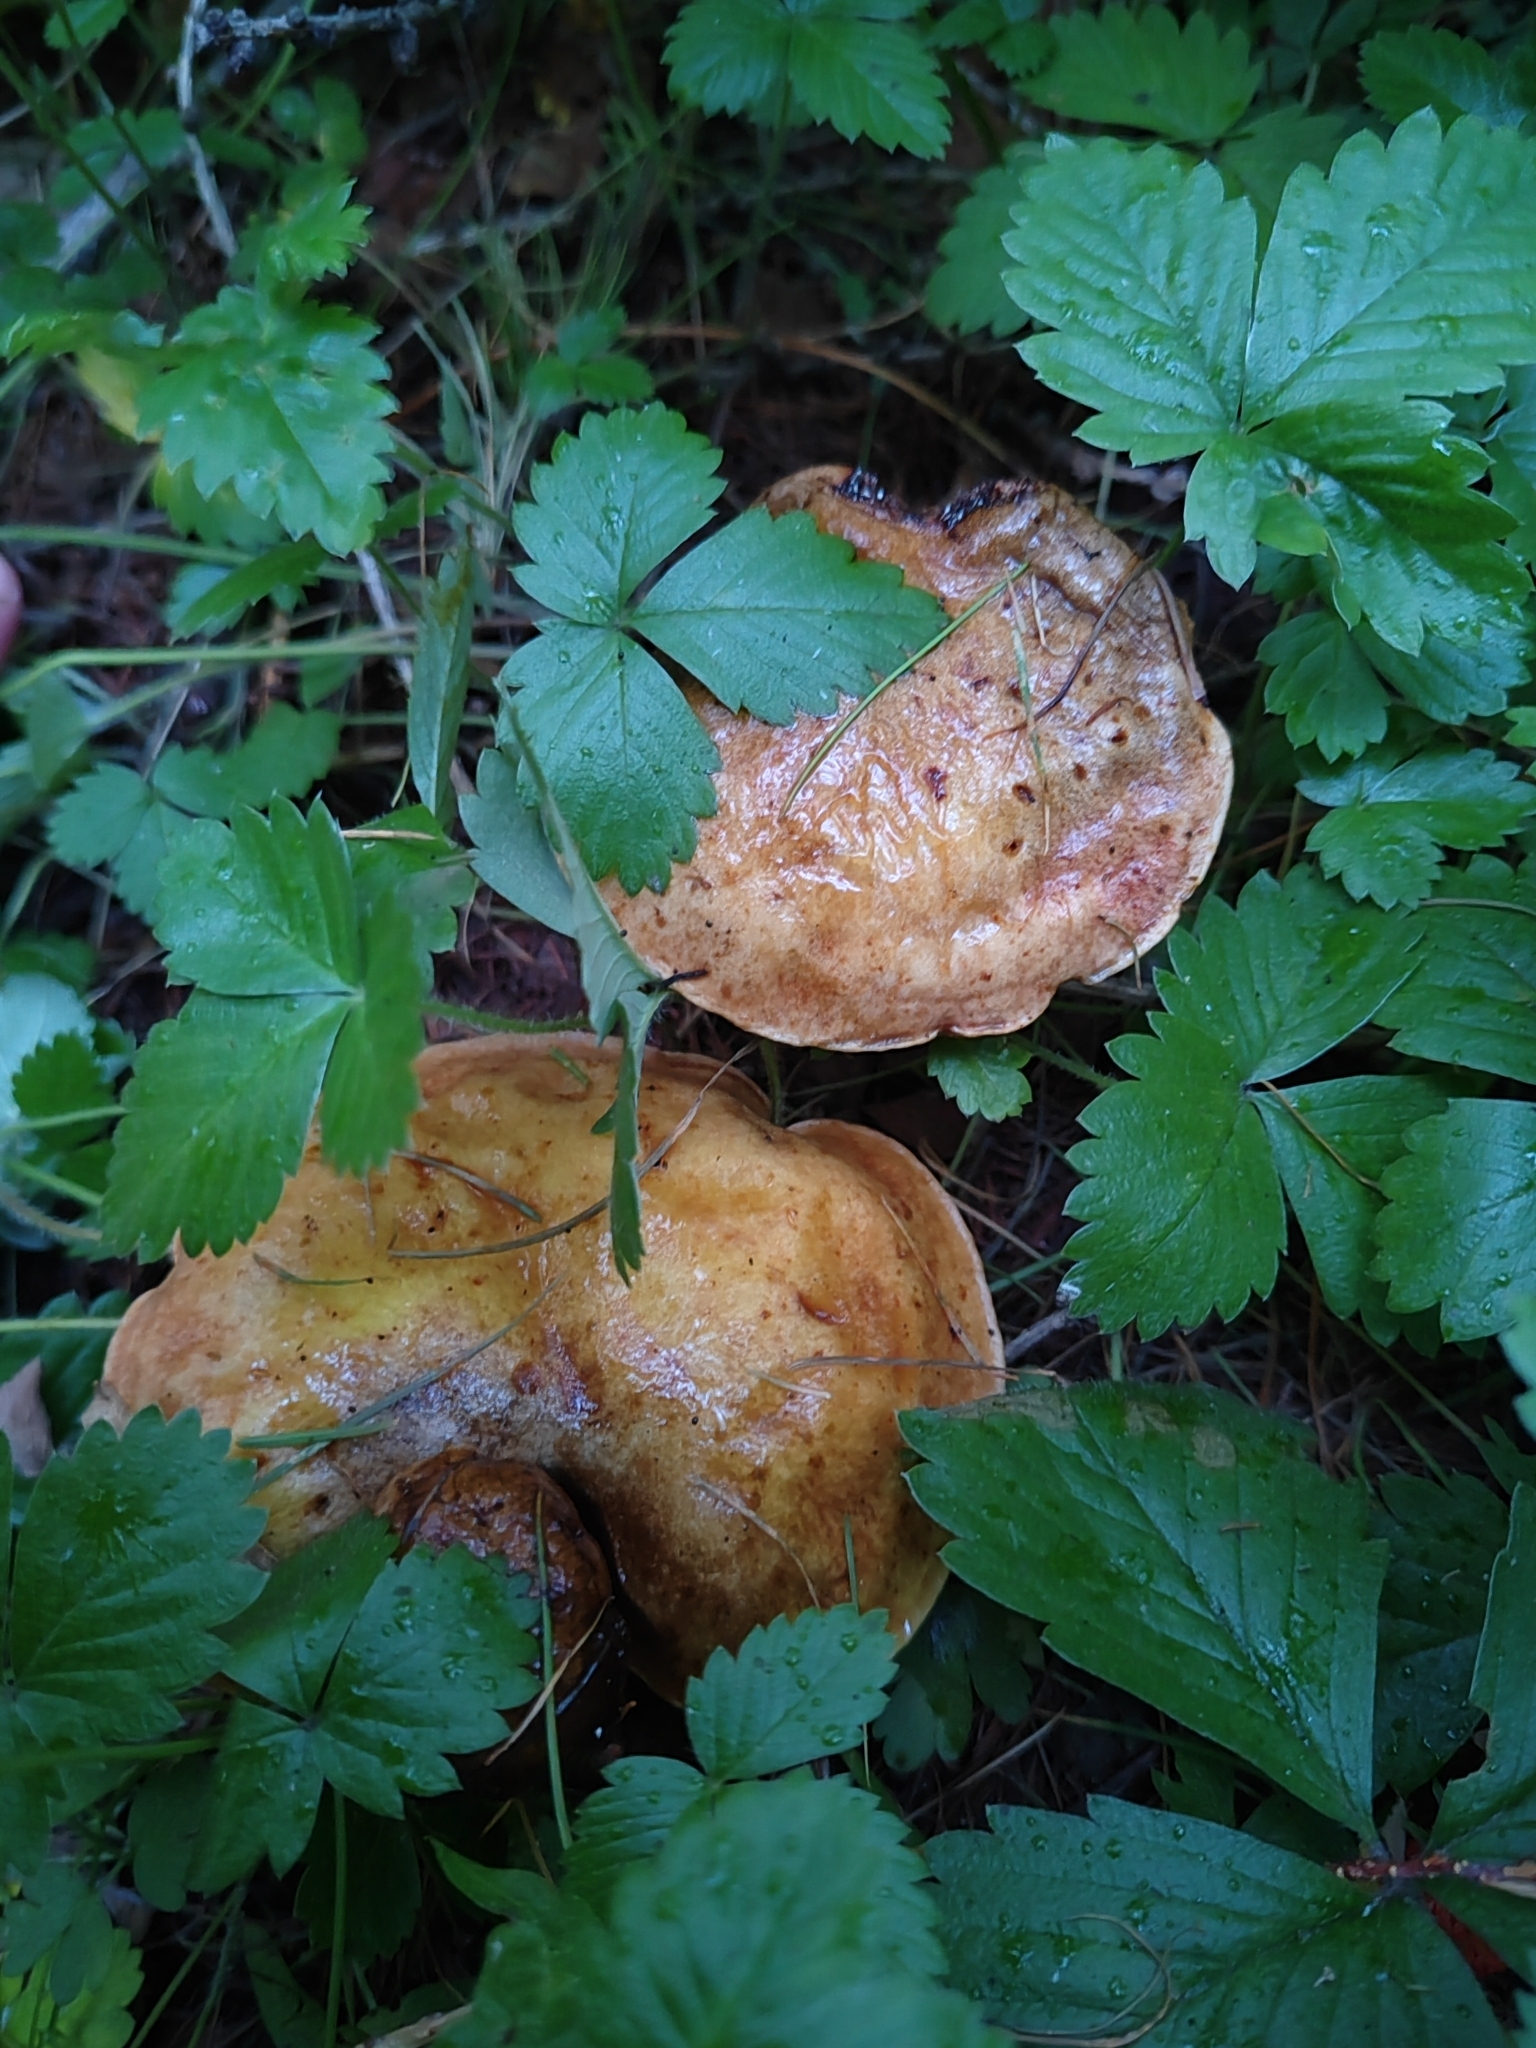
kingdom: Fungi
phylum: Basidiomycota
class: Agaricomycetes
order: Boletales
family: Suillaceae
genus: Suillus
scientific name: Suillus grevillei
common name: Larch bolete
